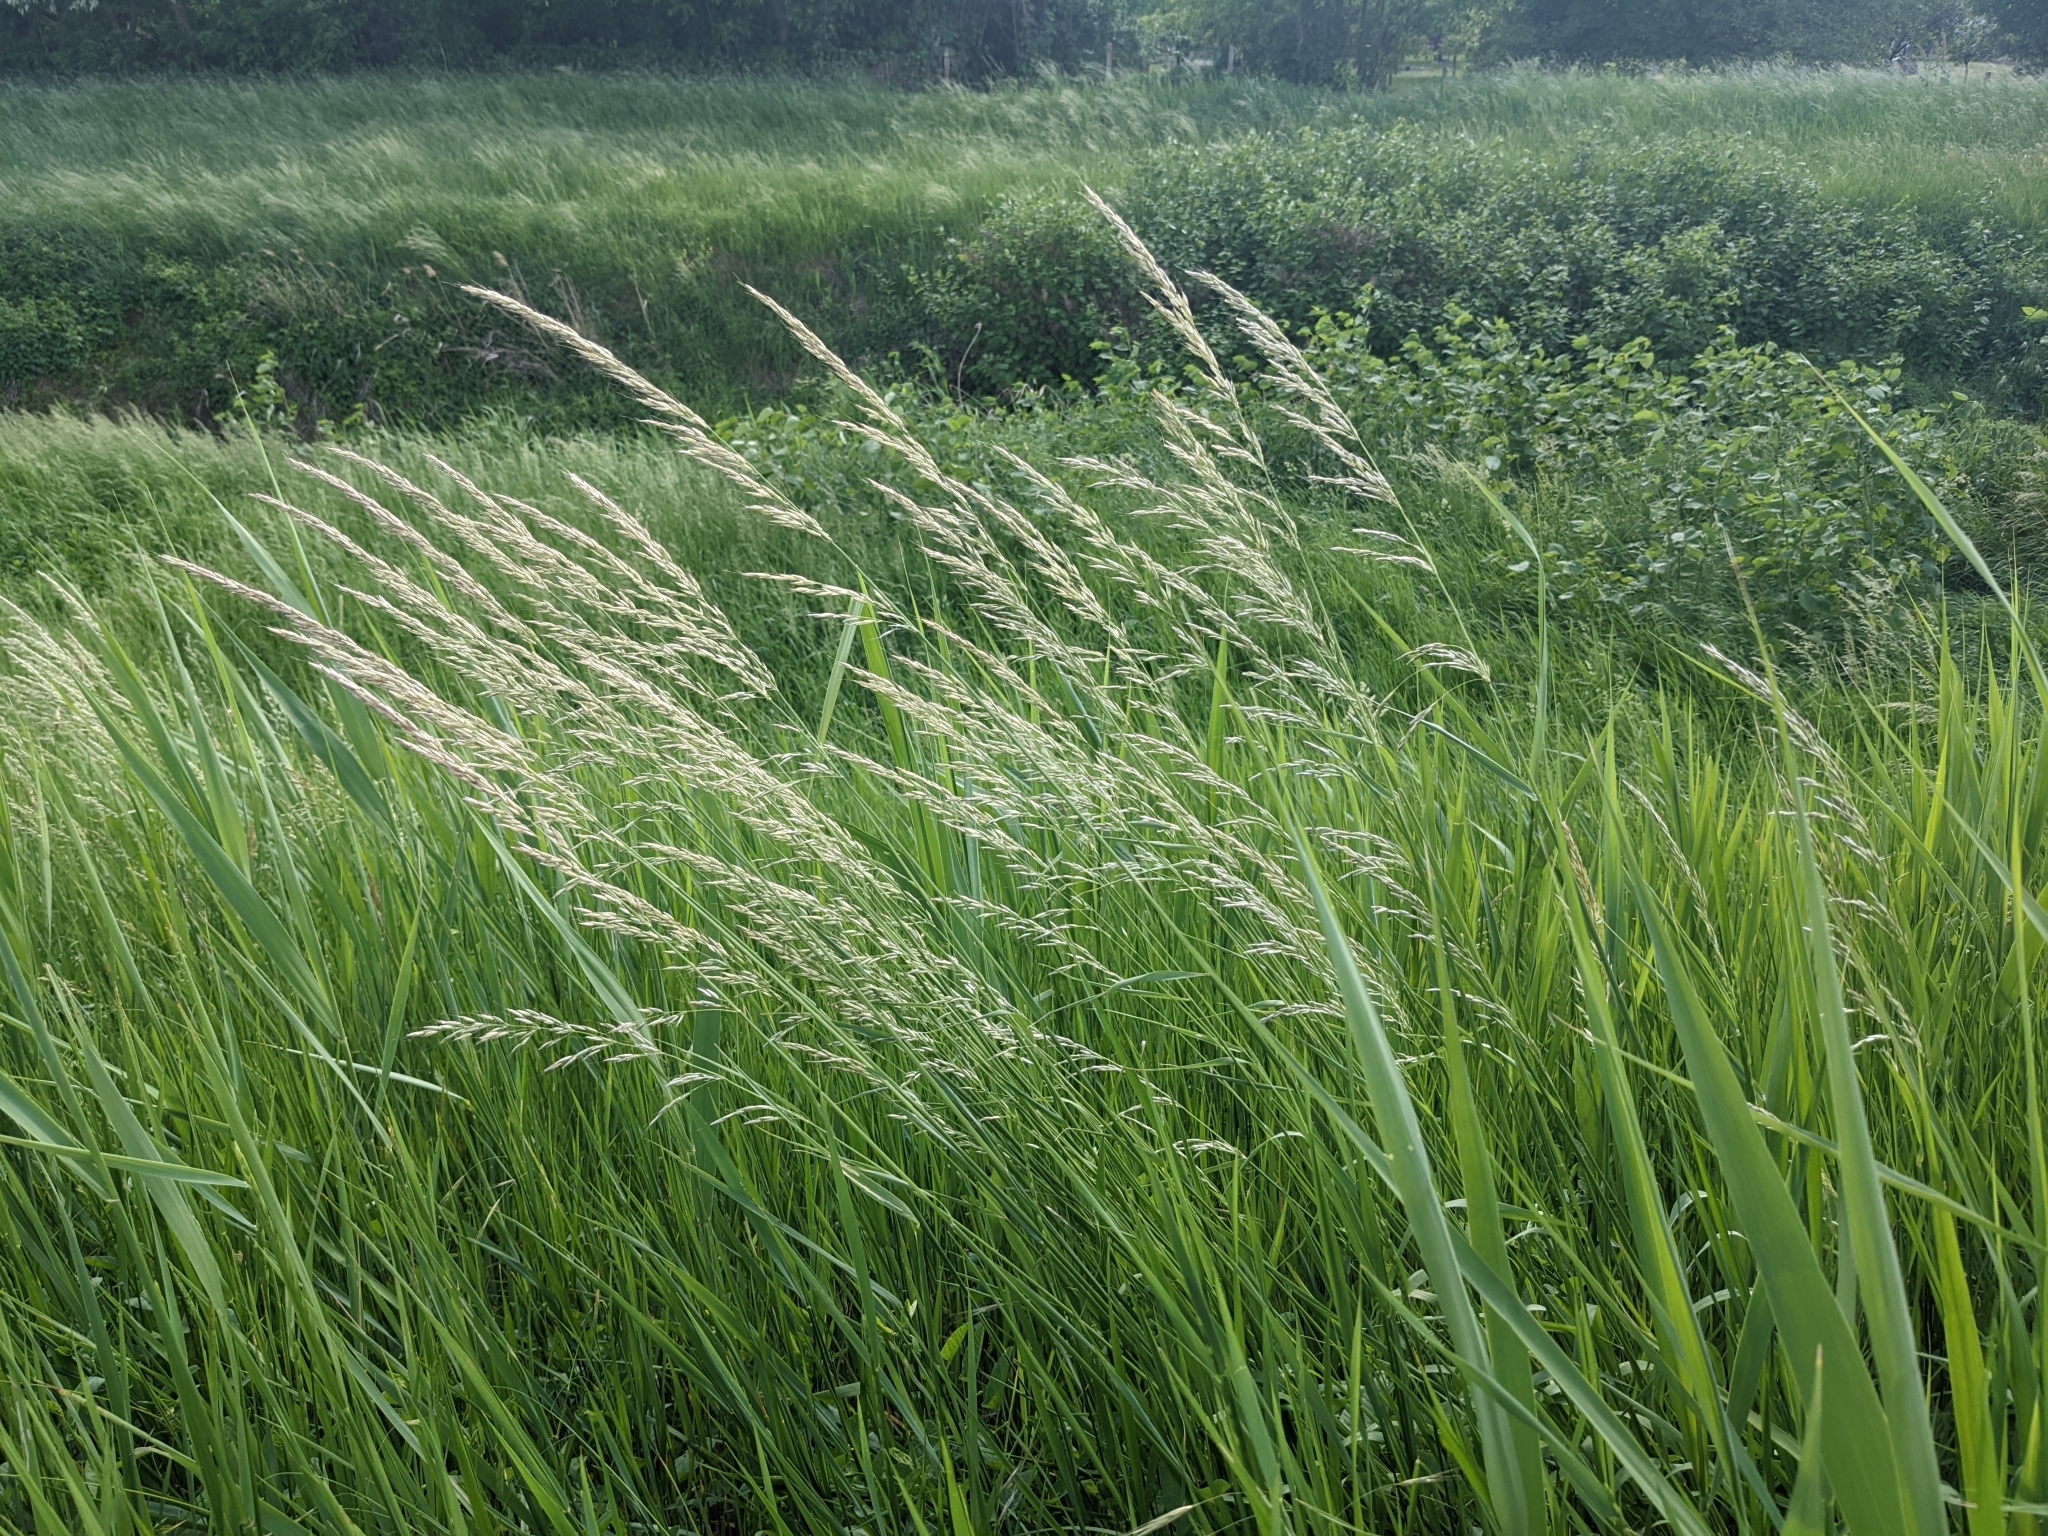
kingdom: Plantae
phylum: Tracheophyta
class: Liliopsida
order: Poales
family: Poaceae
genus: Arrhenatherum
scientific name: Arrhenatherum elatius
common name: Tall oatgrass
